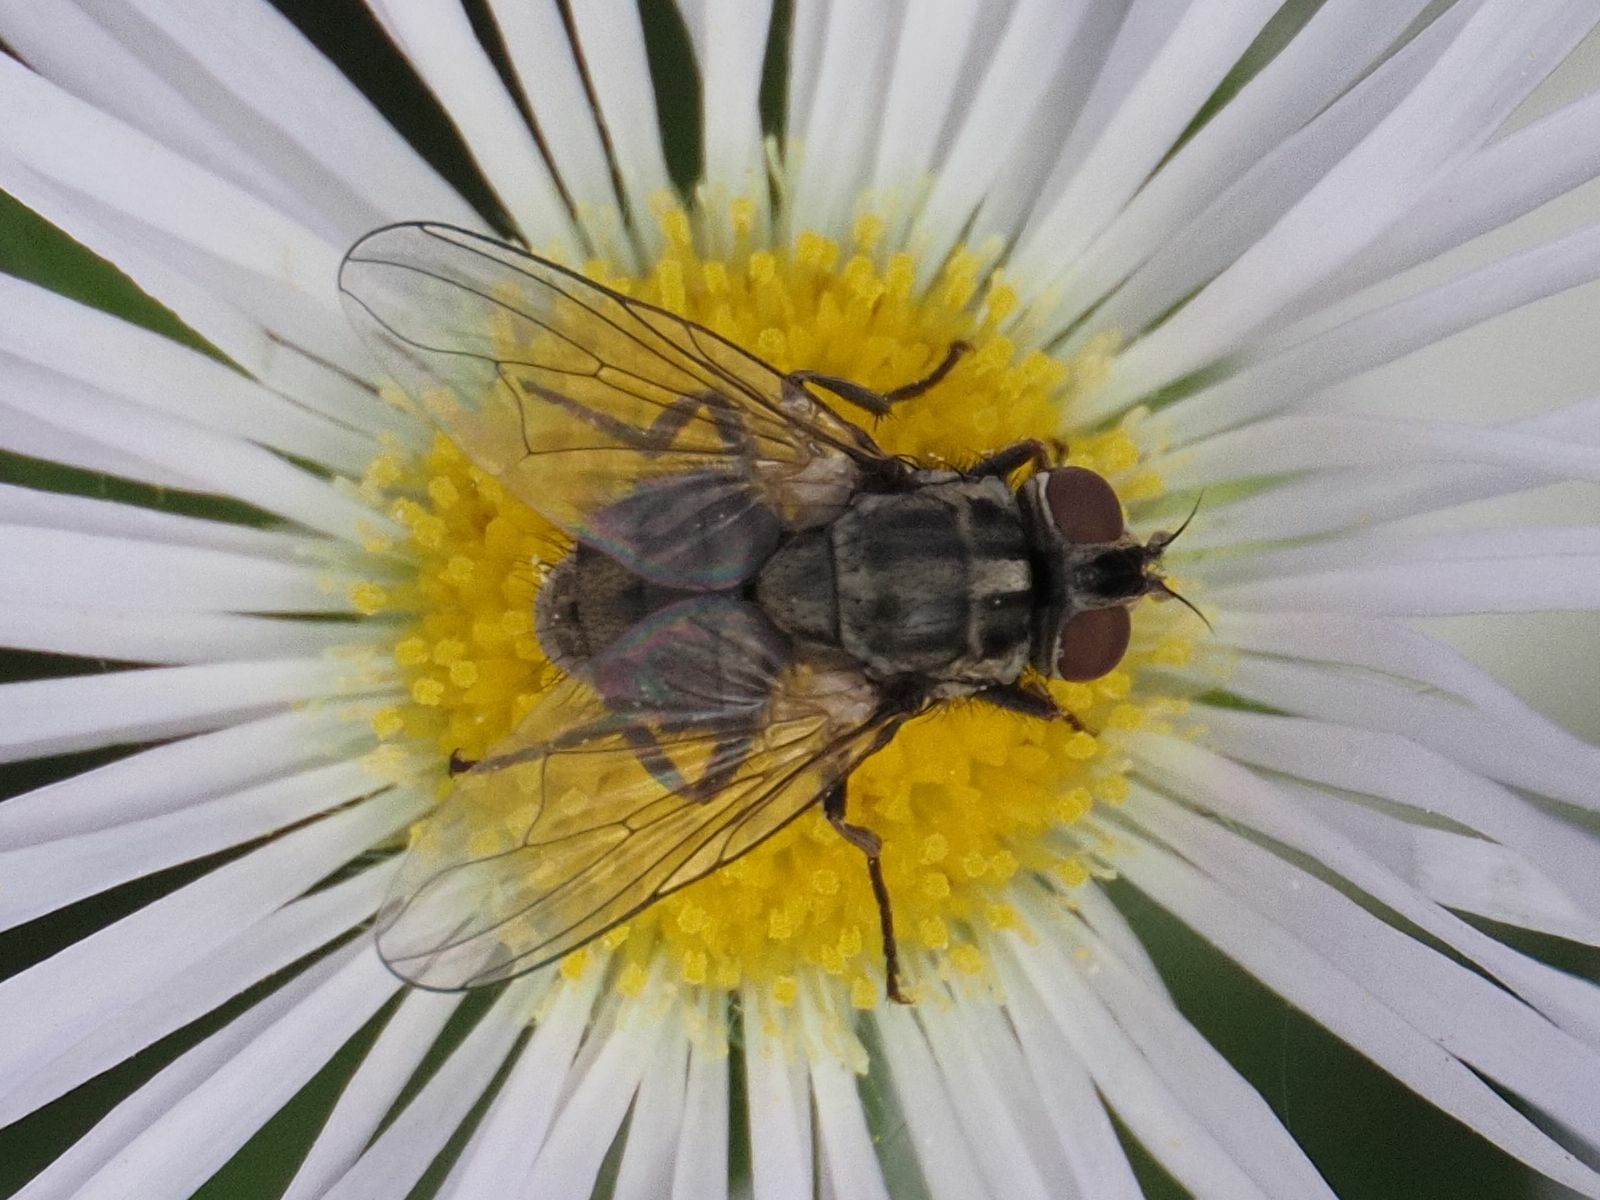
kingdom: Animalia
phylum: Arthropoda
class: Insecta
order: Diptera
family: Muscidae
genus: Stomoxys
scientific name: Stomoxys calcitrans
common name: Stable fly
